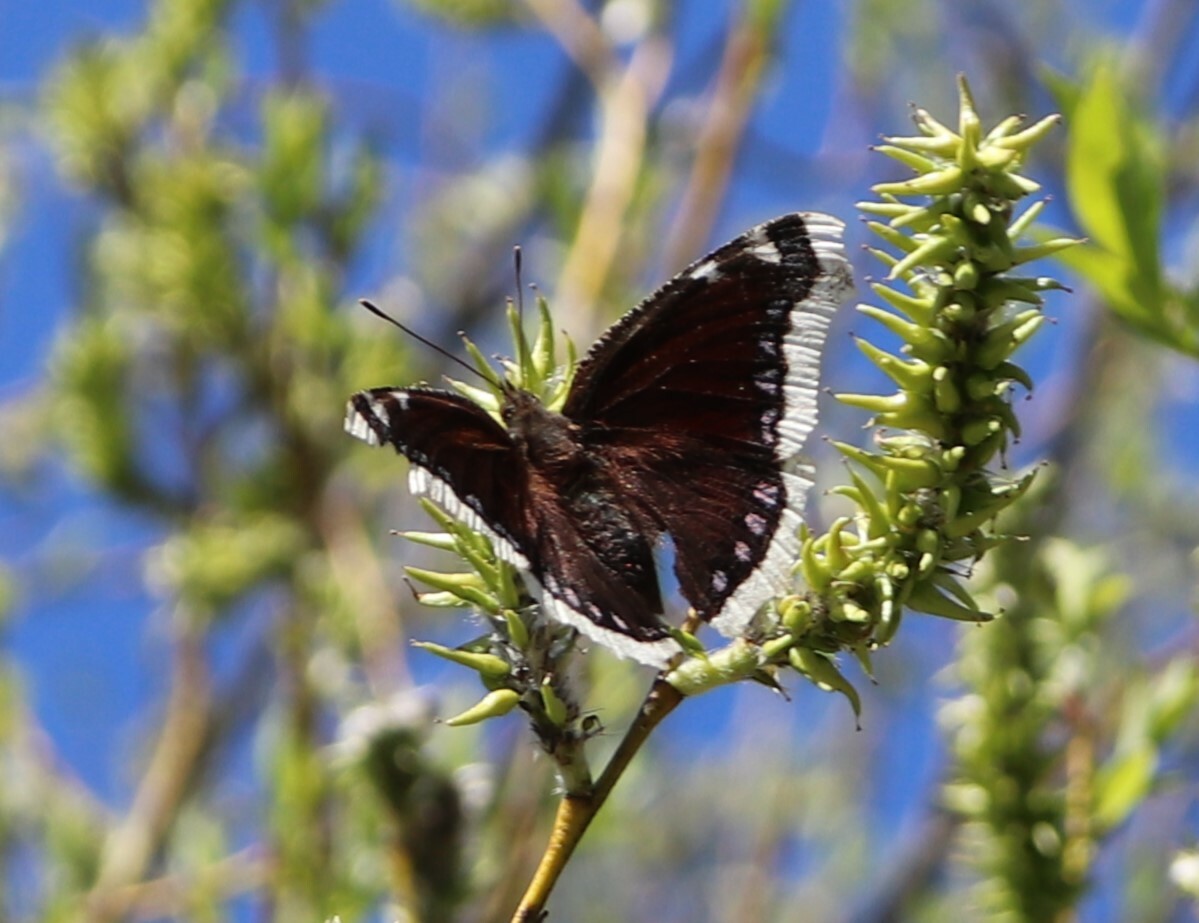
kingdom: Animalia
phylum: Arthropoda
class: Insecta
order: Lepidoptera
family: Nymphalidae
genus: Nymphalis
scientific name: Nymphalis antiopa
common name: Camberwell beauty
